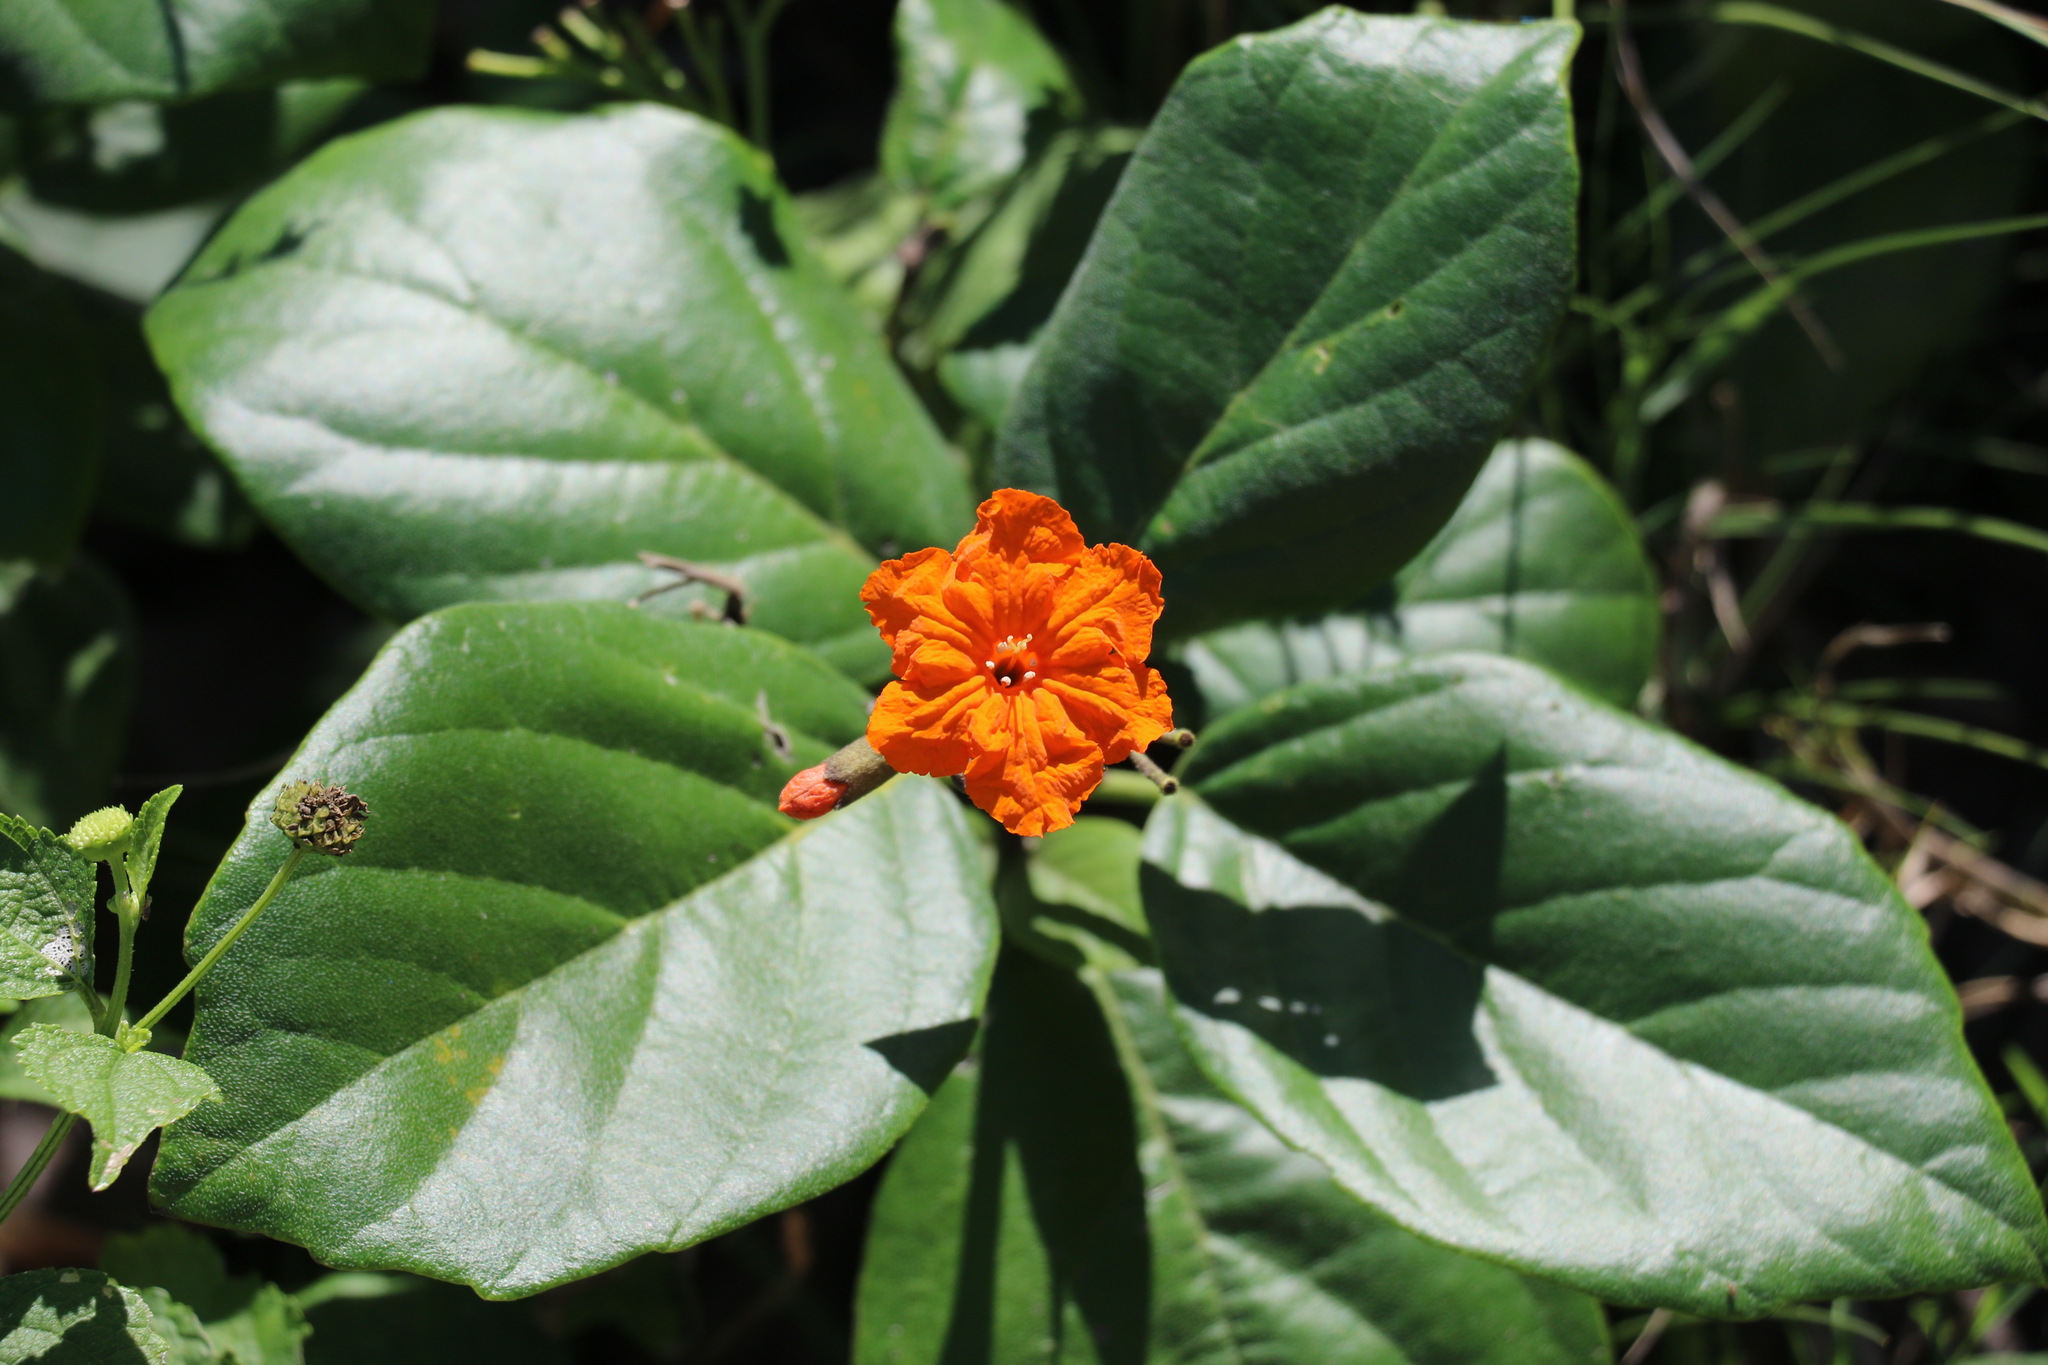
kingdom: Plantae
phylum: Tracheophyta
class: Magnoliopsida
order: Boraginales
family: Cordiaceae
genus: Cordia
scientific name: Cordia sebestena
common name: Largeleaf geigertree
